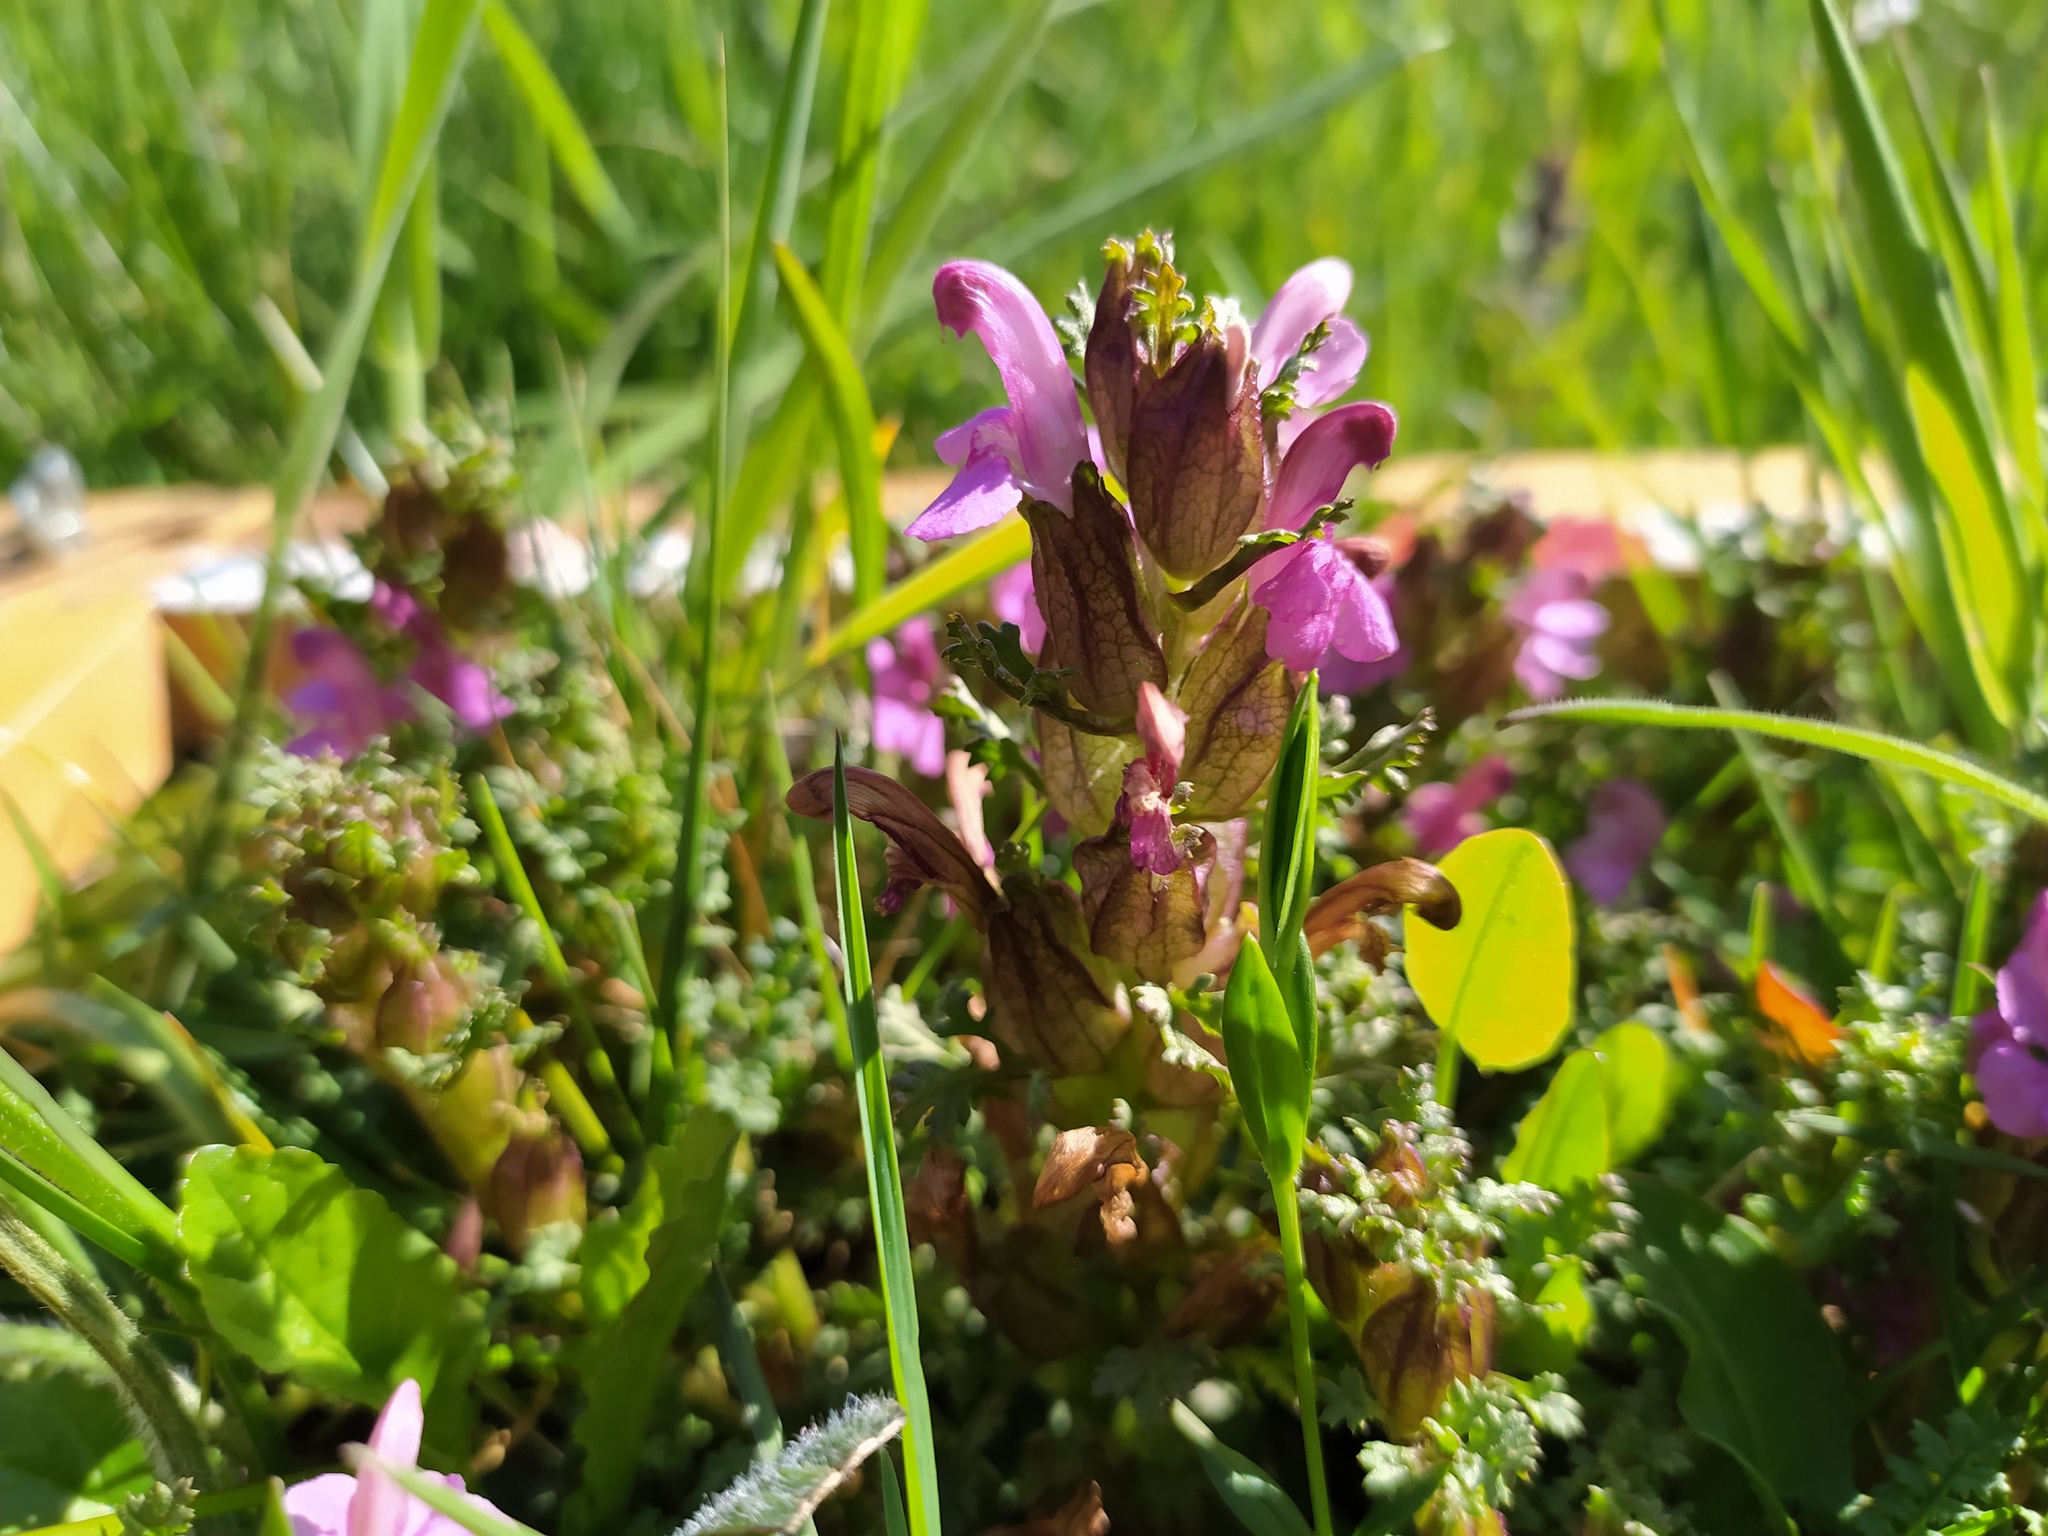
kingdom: Plantae
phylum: Tracheophyta
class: Magnoliopsida
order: Lamiales
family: Orobanchaceae
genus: Pedicularis
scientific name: Pedicularis sylvatica
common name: Lousewort
